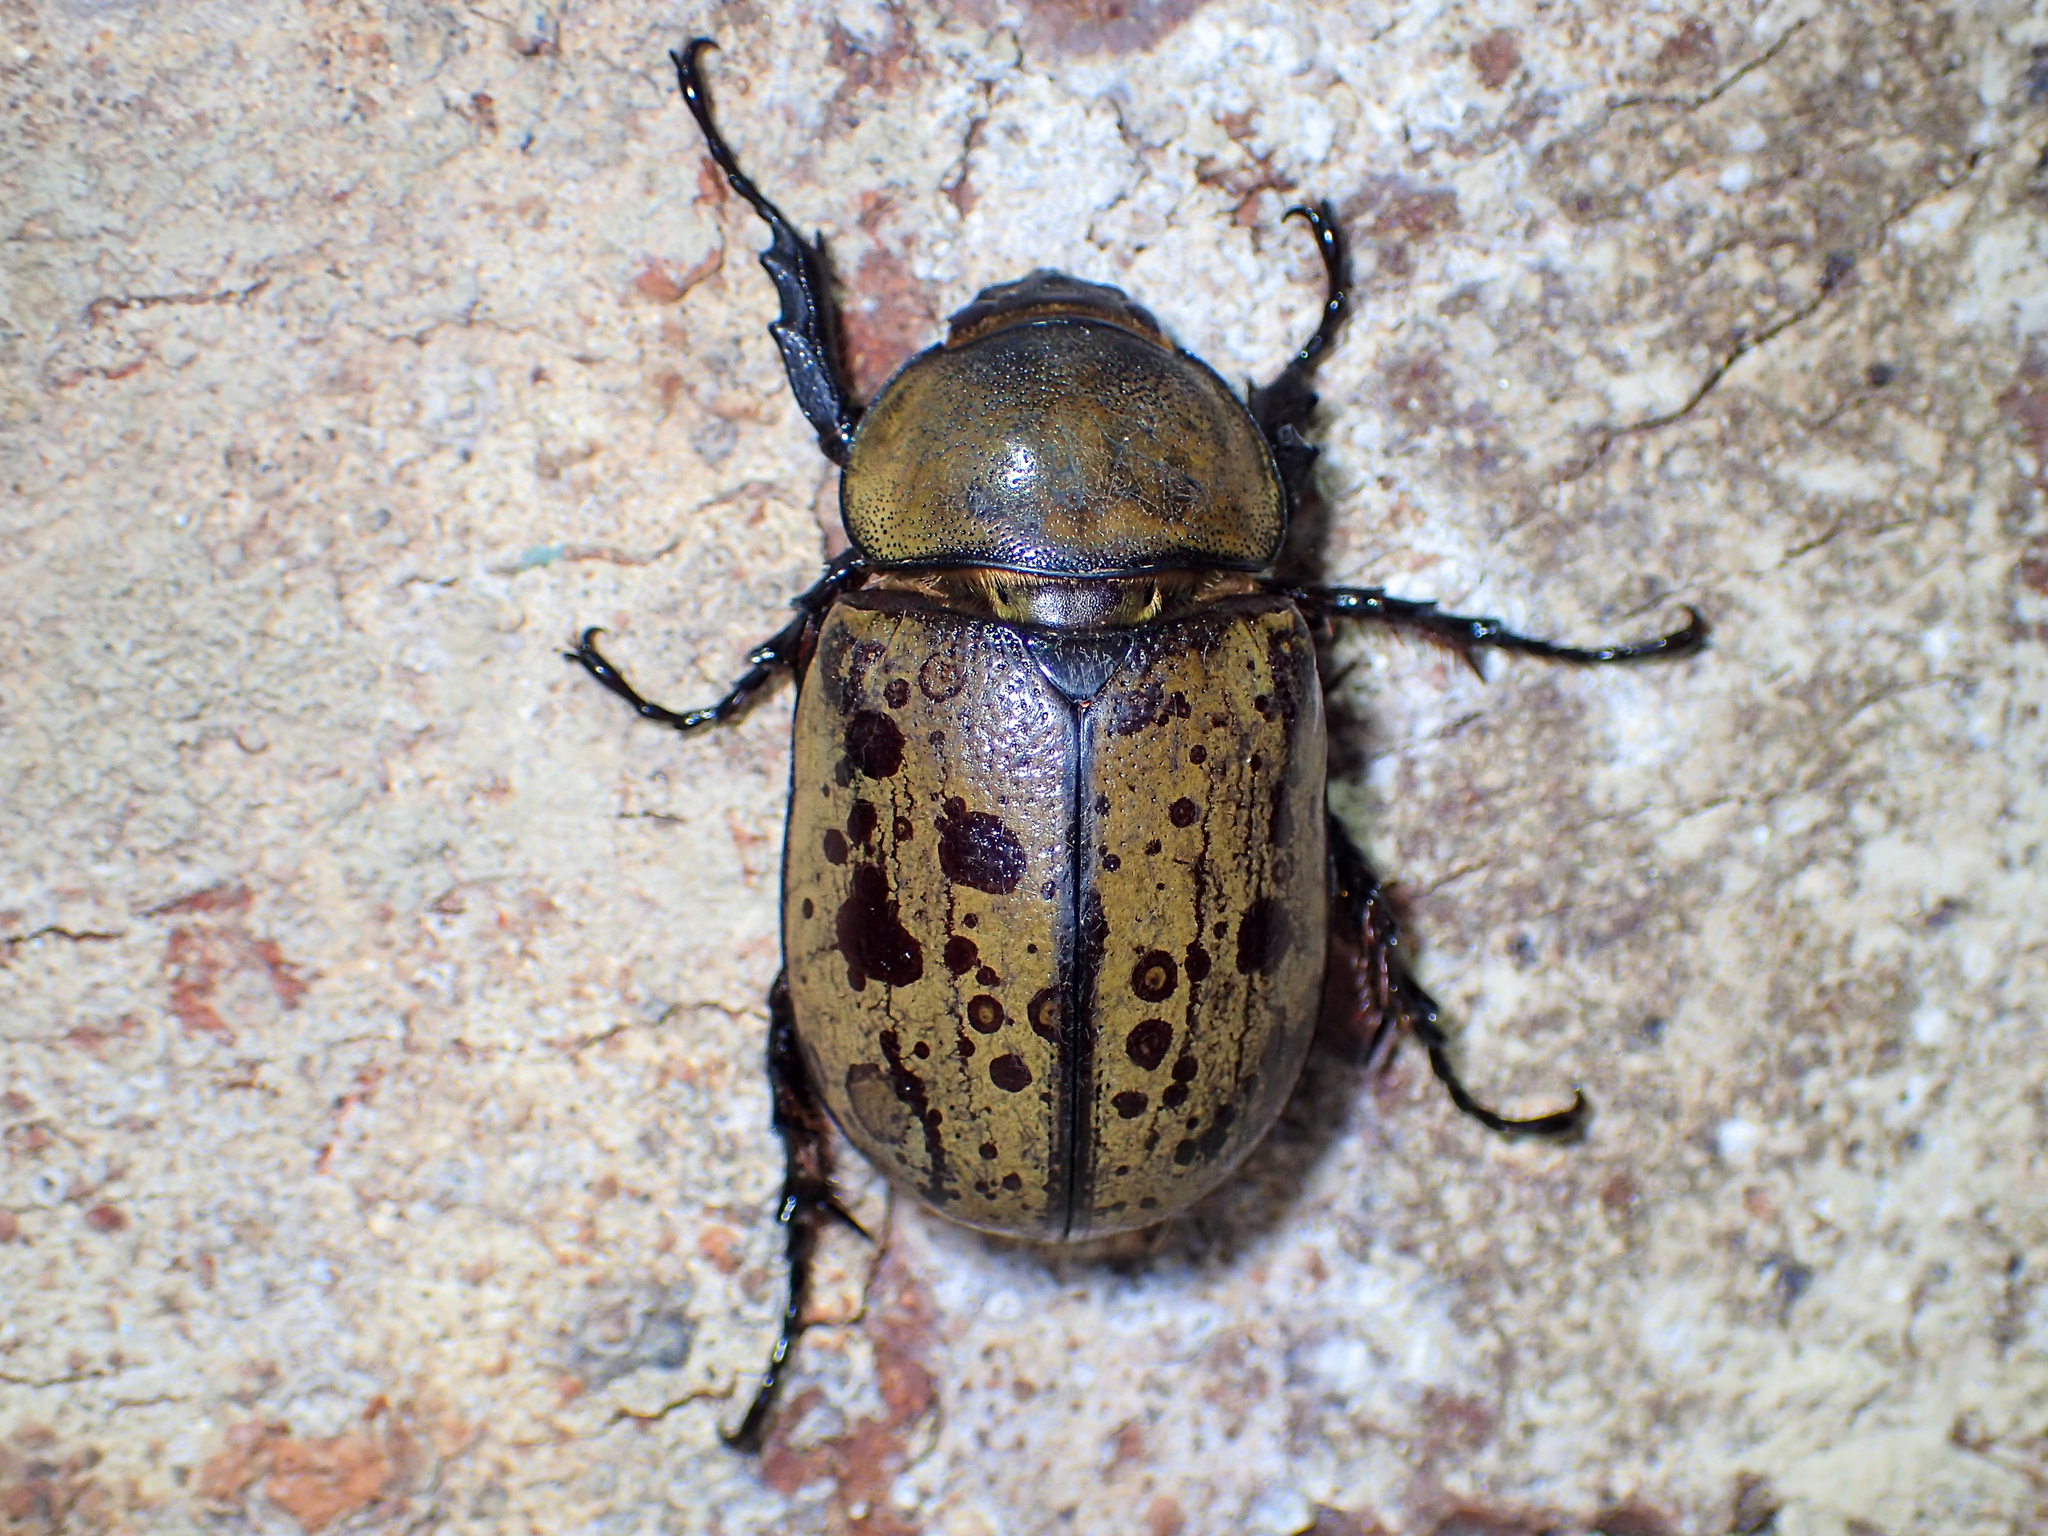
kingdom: Animalia
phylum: Arthropoda
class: Insecta
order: Coleoptera
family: Scarabaeidae
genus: Dynastes
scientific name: Dynastes tityus
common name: Eastern hercules beetle
